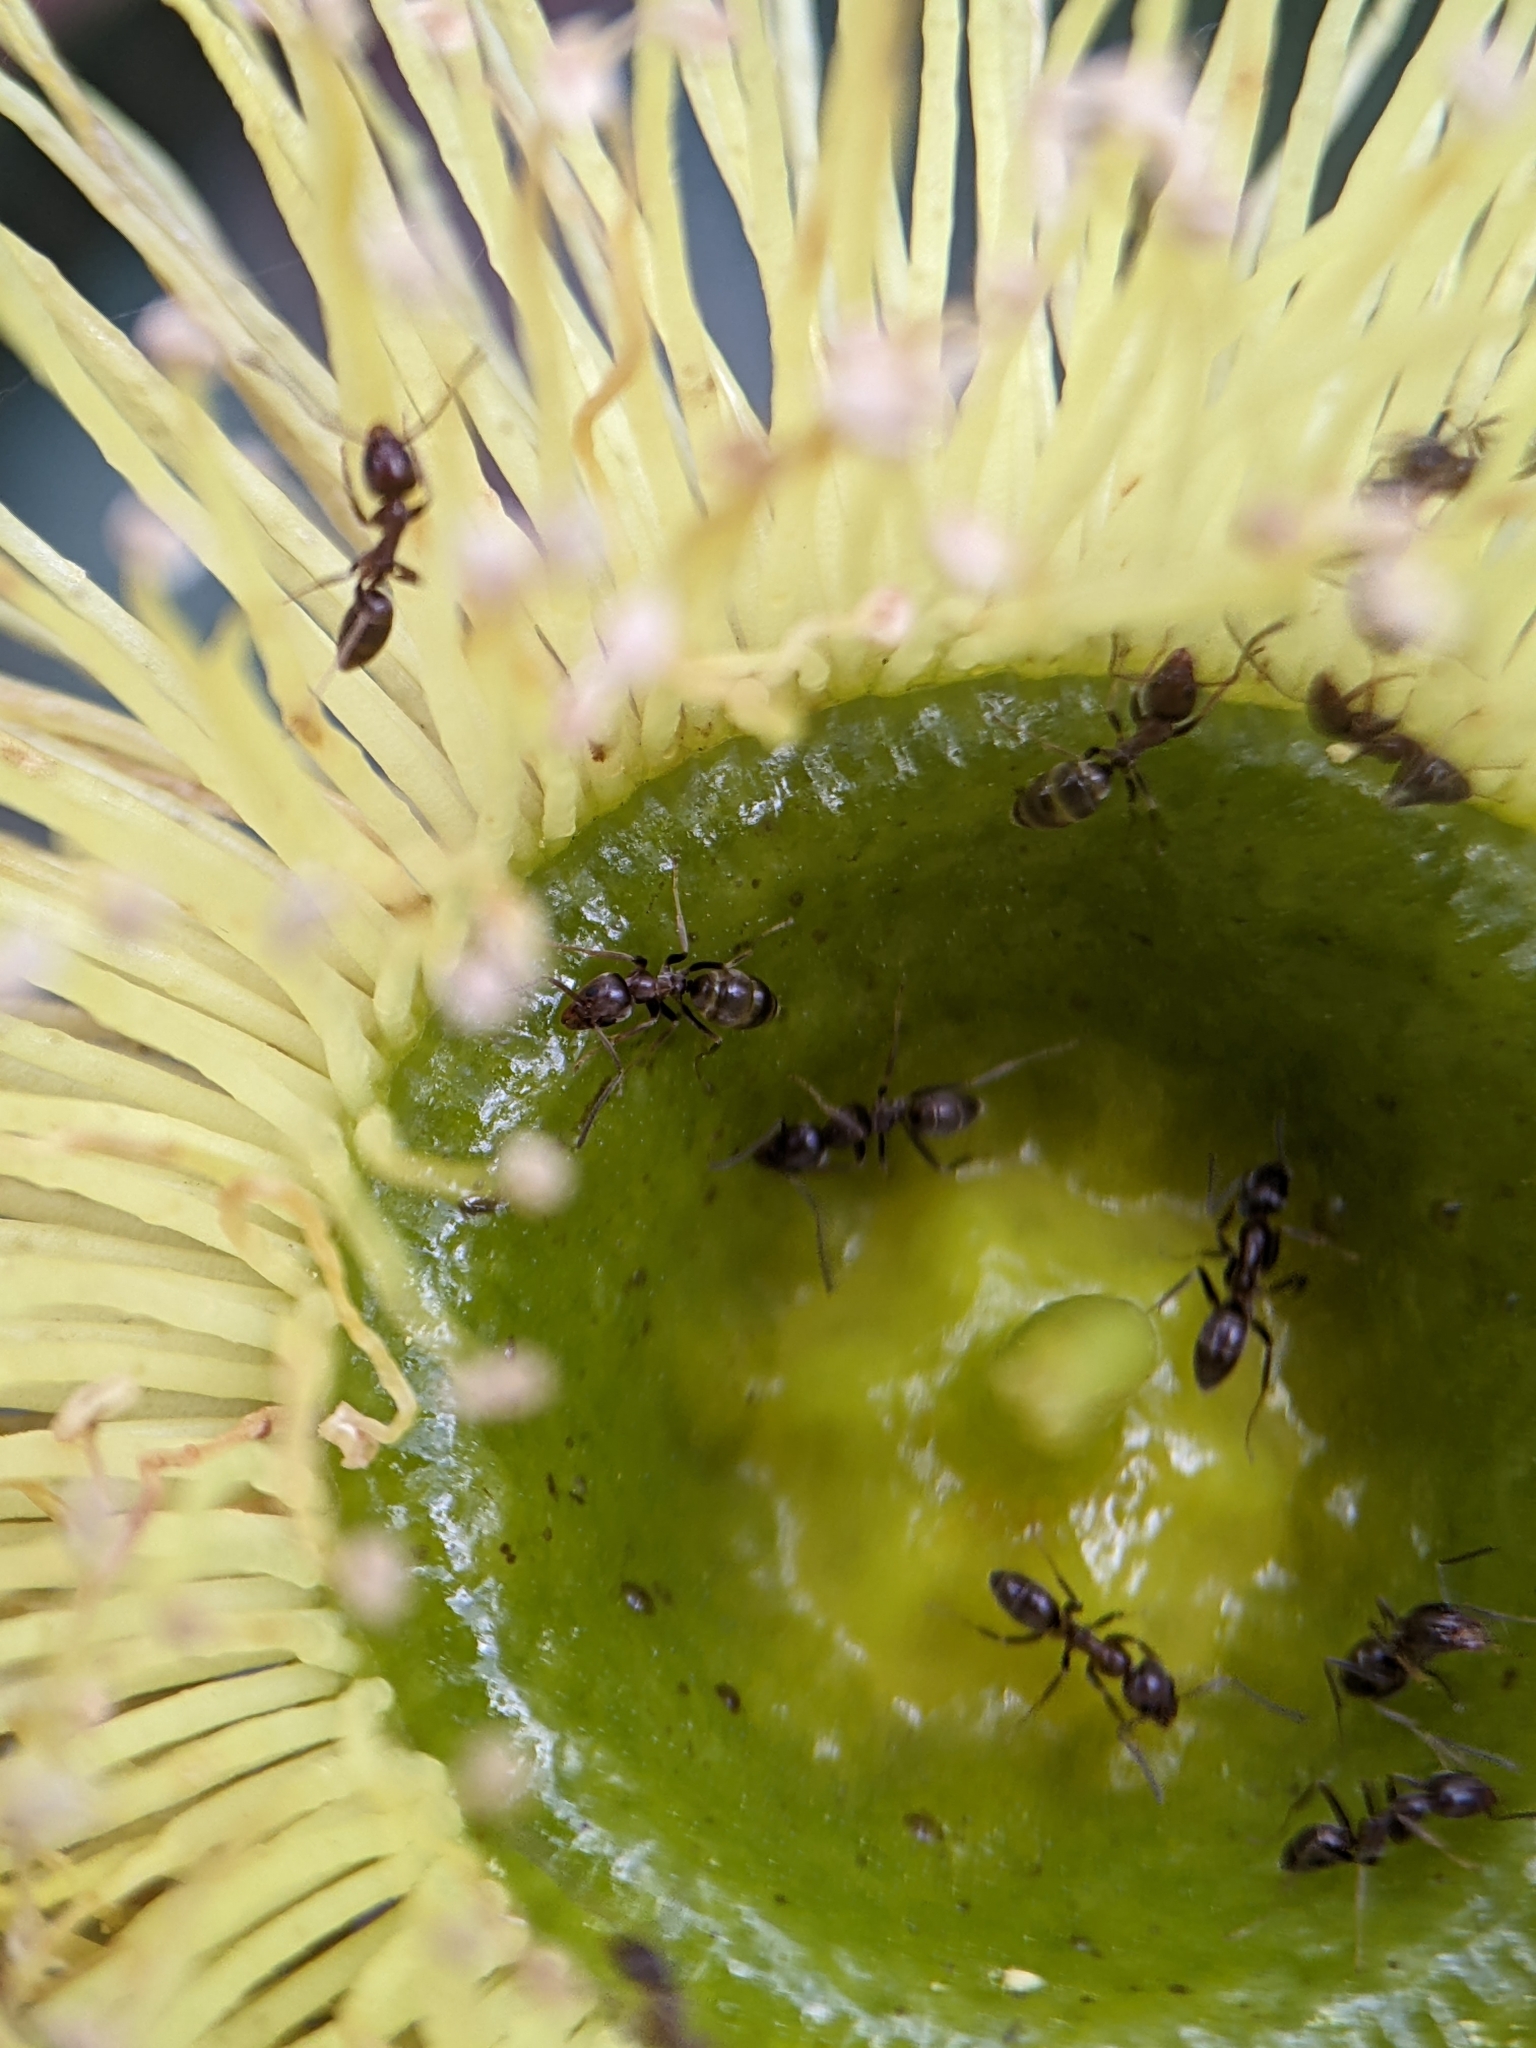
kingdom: Animalia
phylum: Arthropoda
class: Insecta
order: Hymenoptera
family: Formicidae
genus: Linepithema
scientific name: Linepithema humile
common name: Argentine ant
